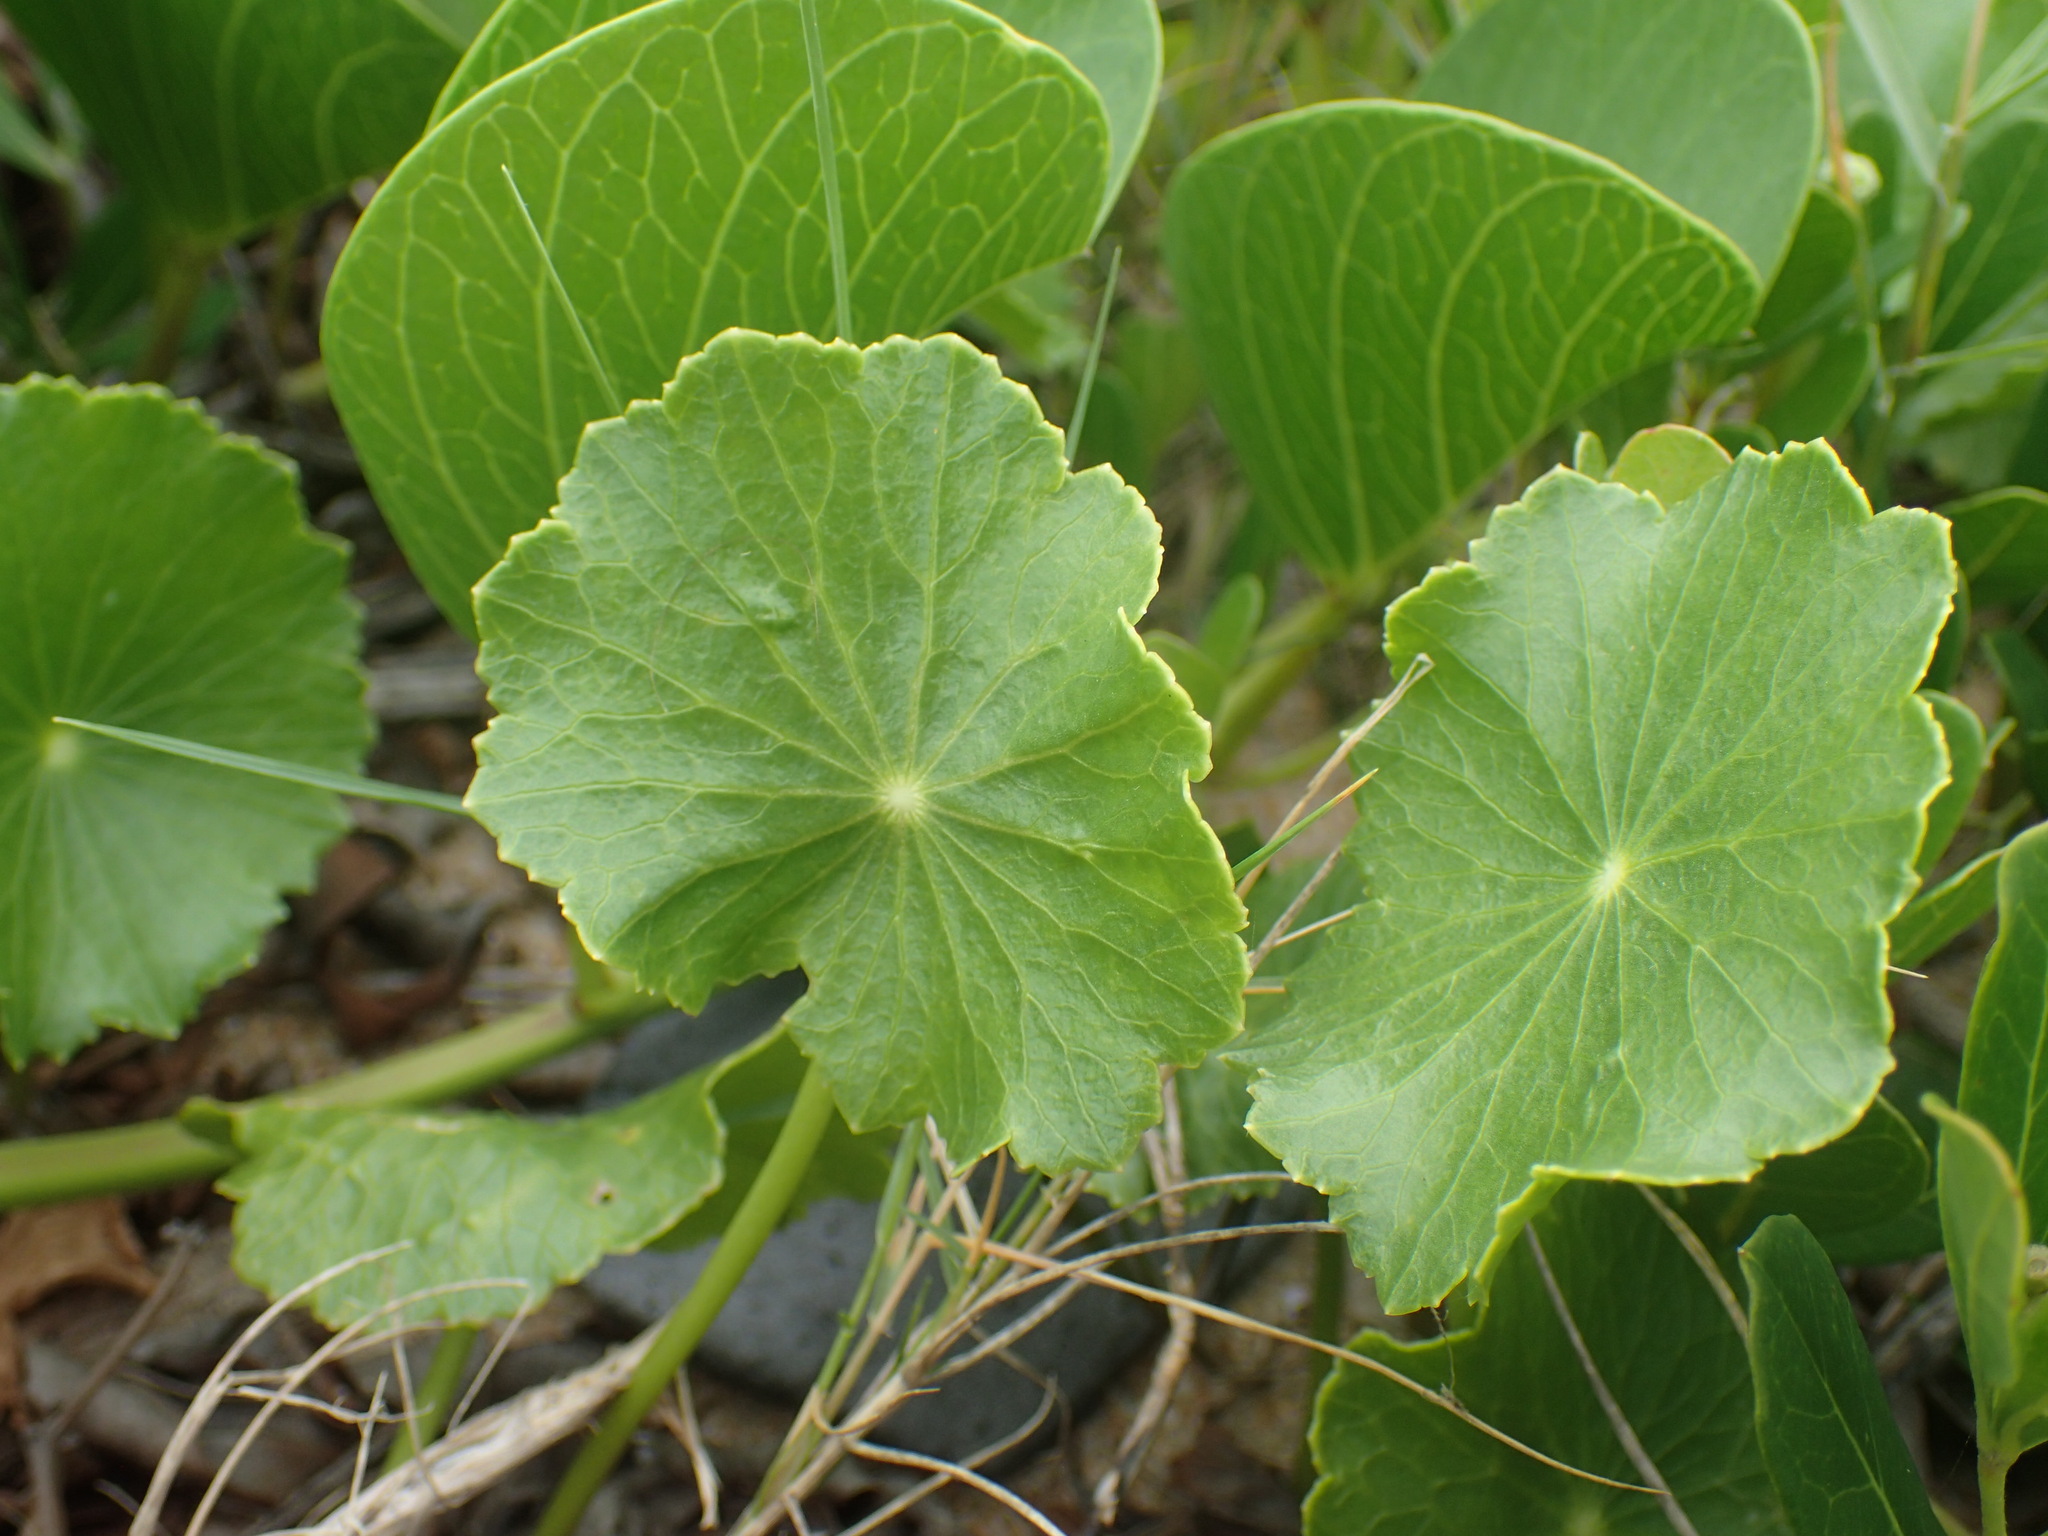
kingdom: Plantae
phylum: Tracheophyta
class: Magnoliopsida
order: Apiales
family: Araliaceae
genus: Hydrocotyle
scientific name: Hydrocotyle bonariensis
